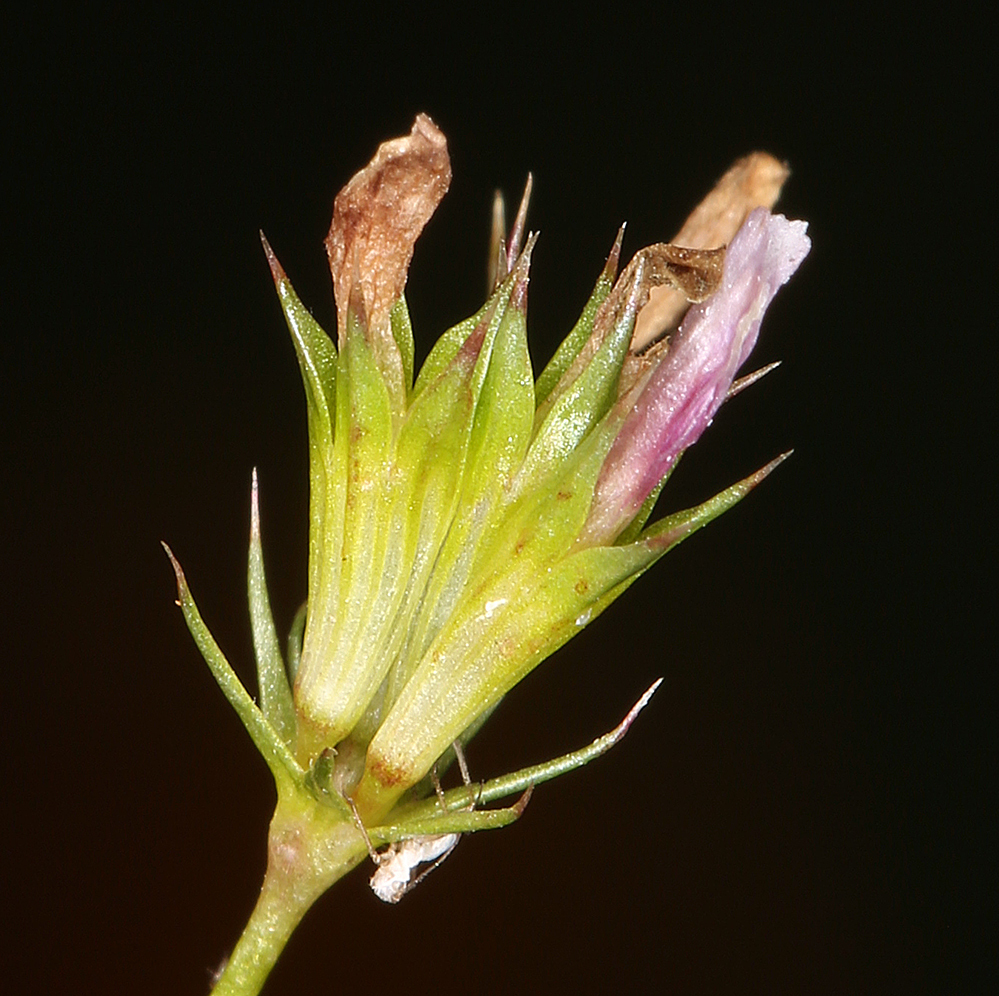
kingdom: Plantae
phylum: Tracheophyta
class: Magnoliopsida
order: Fabales
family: Fabaceae
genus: Trifolium
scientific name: Trifolium oliganthum
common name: Few-flower clover
